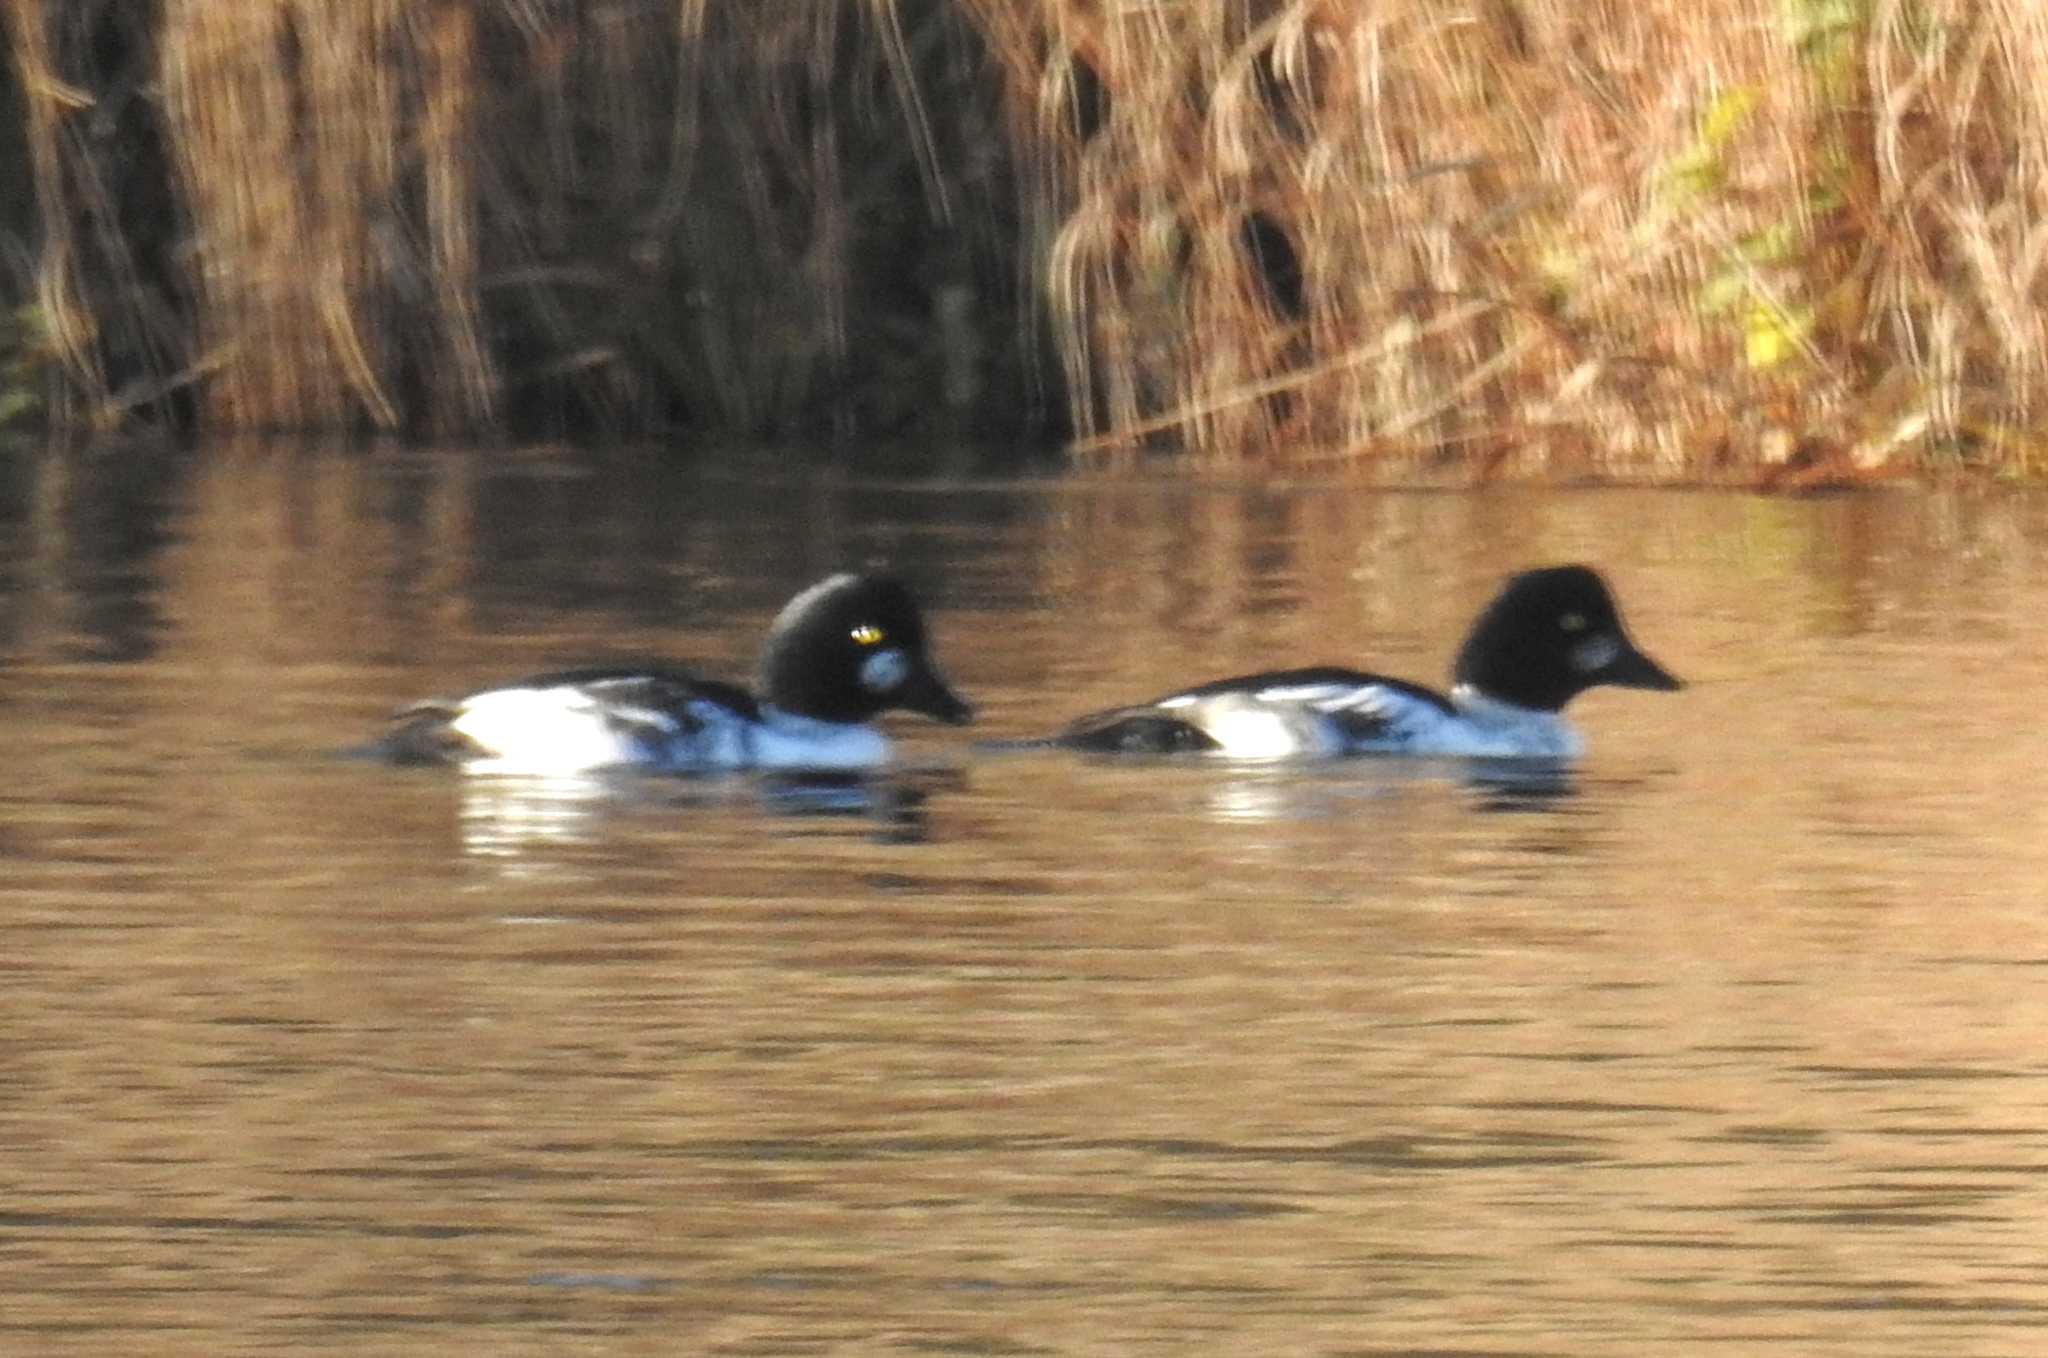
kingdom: Animalia
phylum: Chordata
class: Aves
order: Anseriformes
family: Anatidae
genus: Bucephala
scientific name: Bucephala clangula
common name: Common goldeneye
